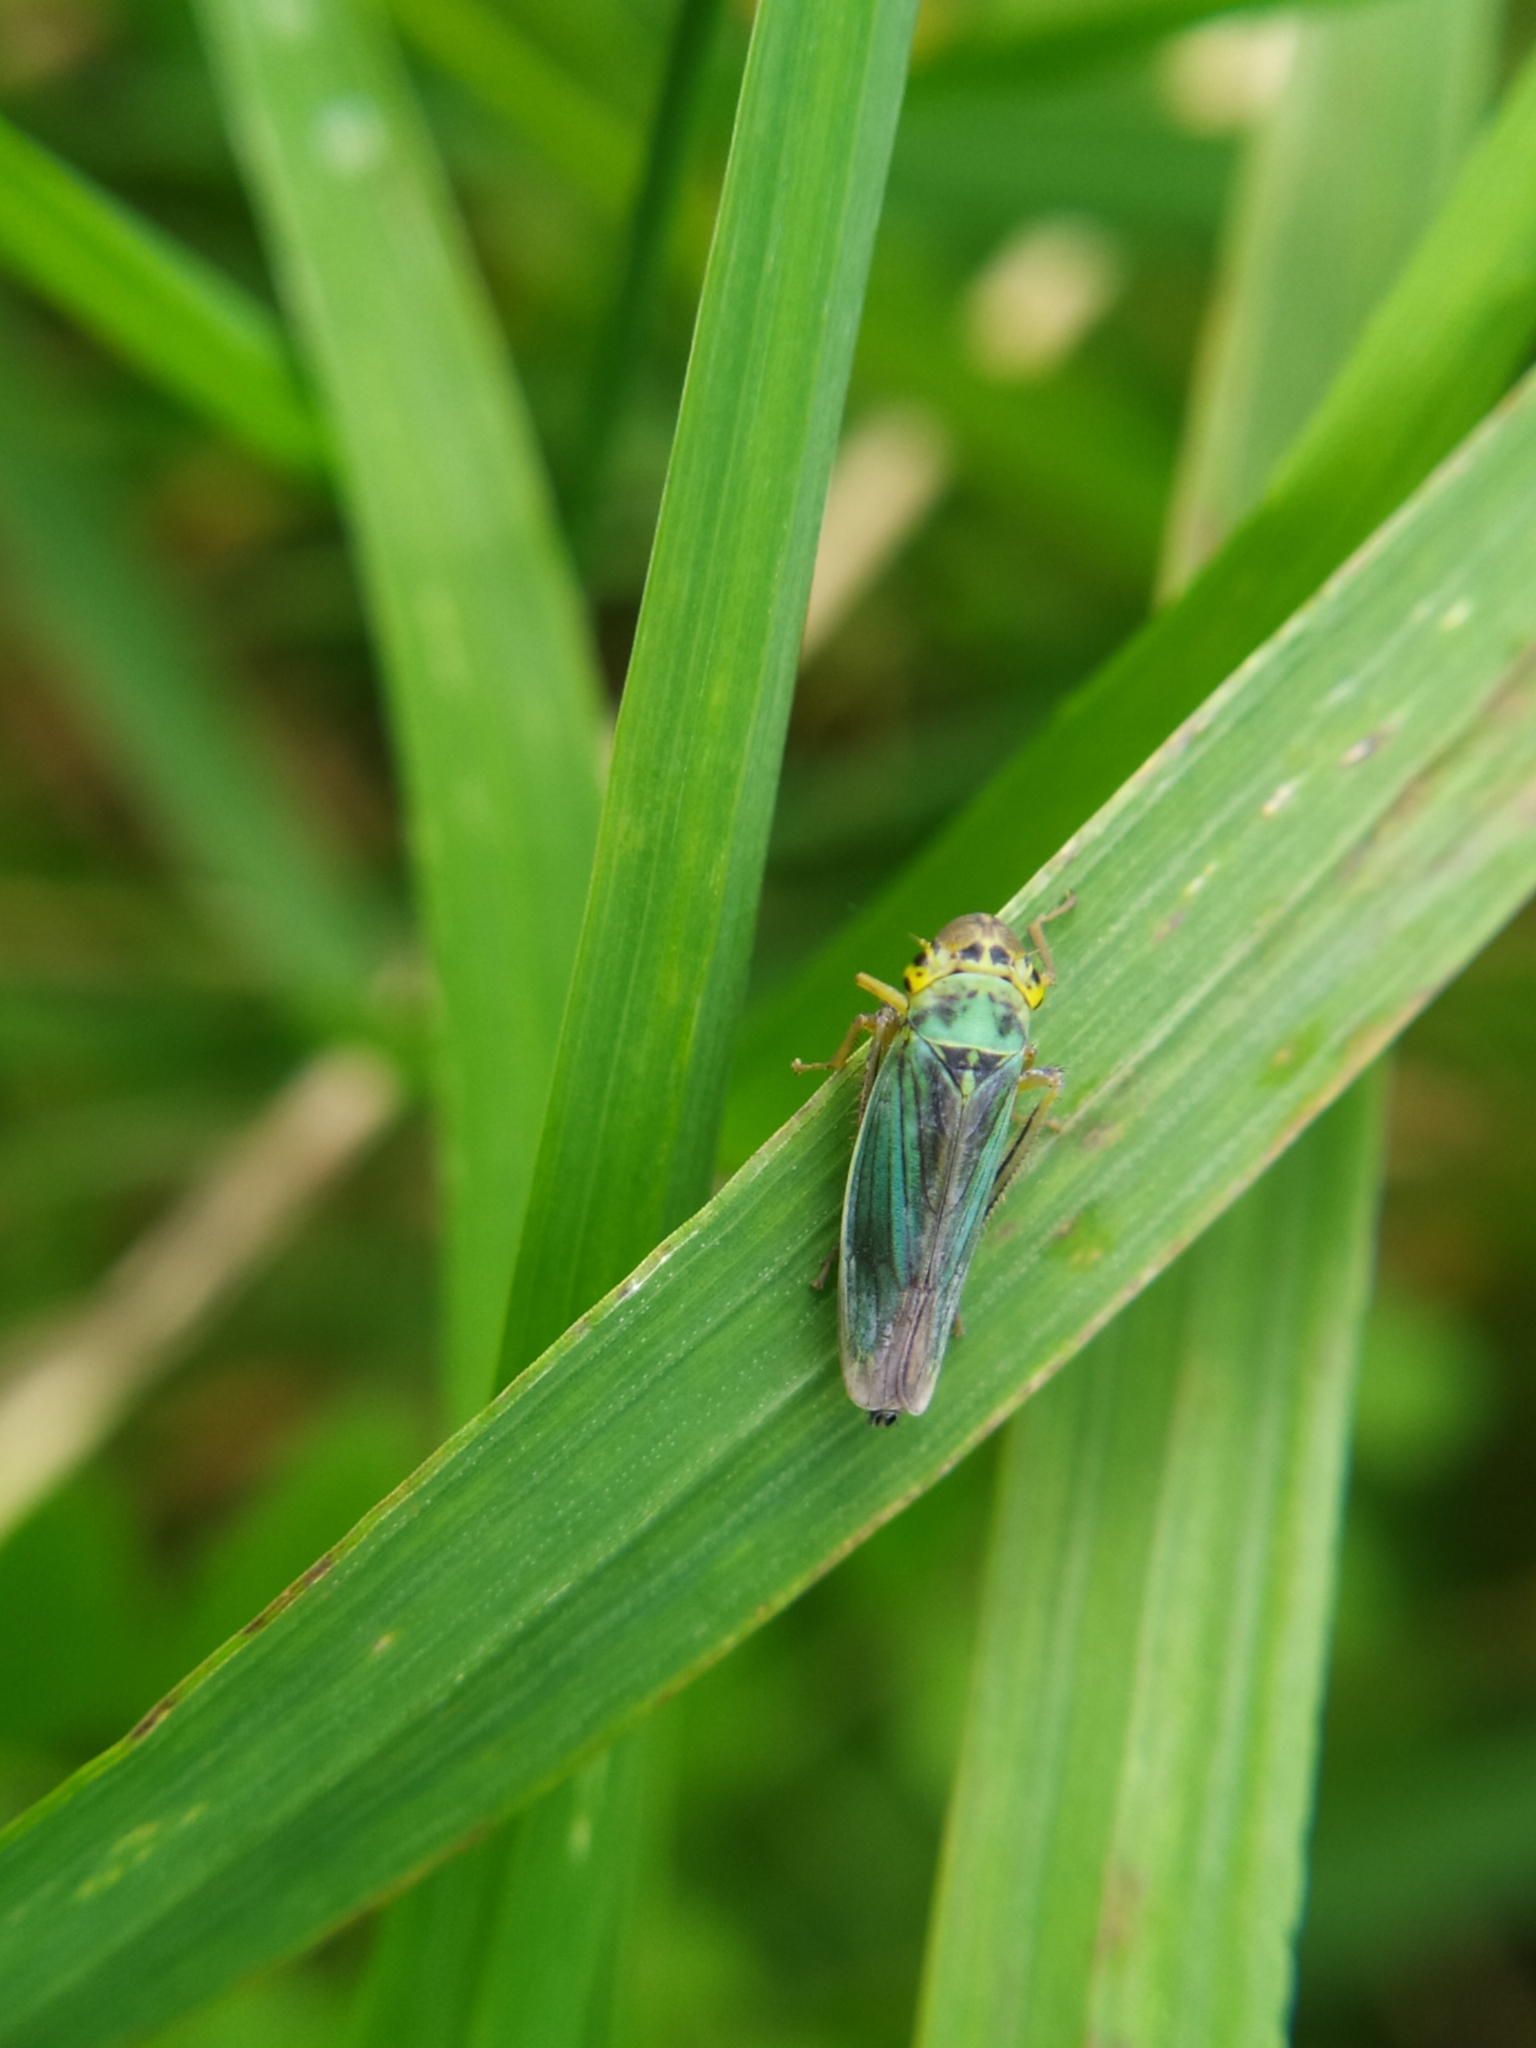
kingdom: Animalia
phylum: Arthropoda
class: Insecta
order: Hemiptera
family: Cicadellidae
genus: Cicadella
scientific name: Cicadella viridis
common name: Leafhopper
